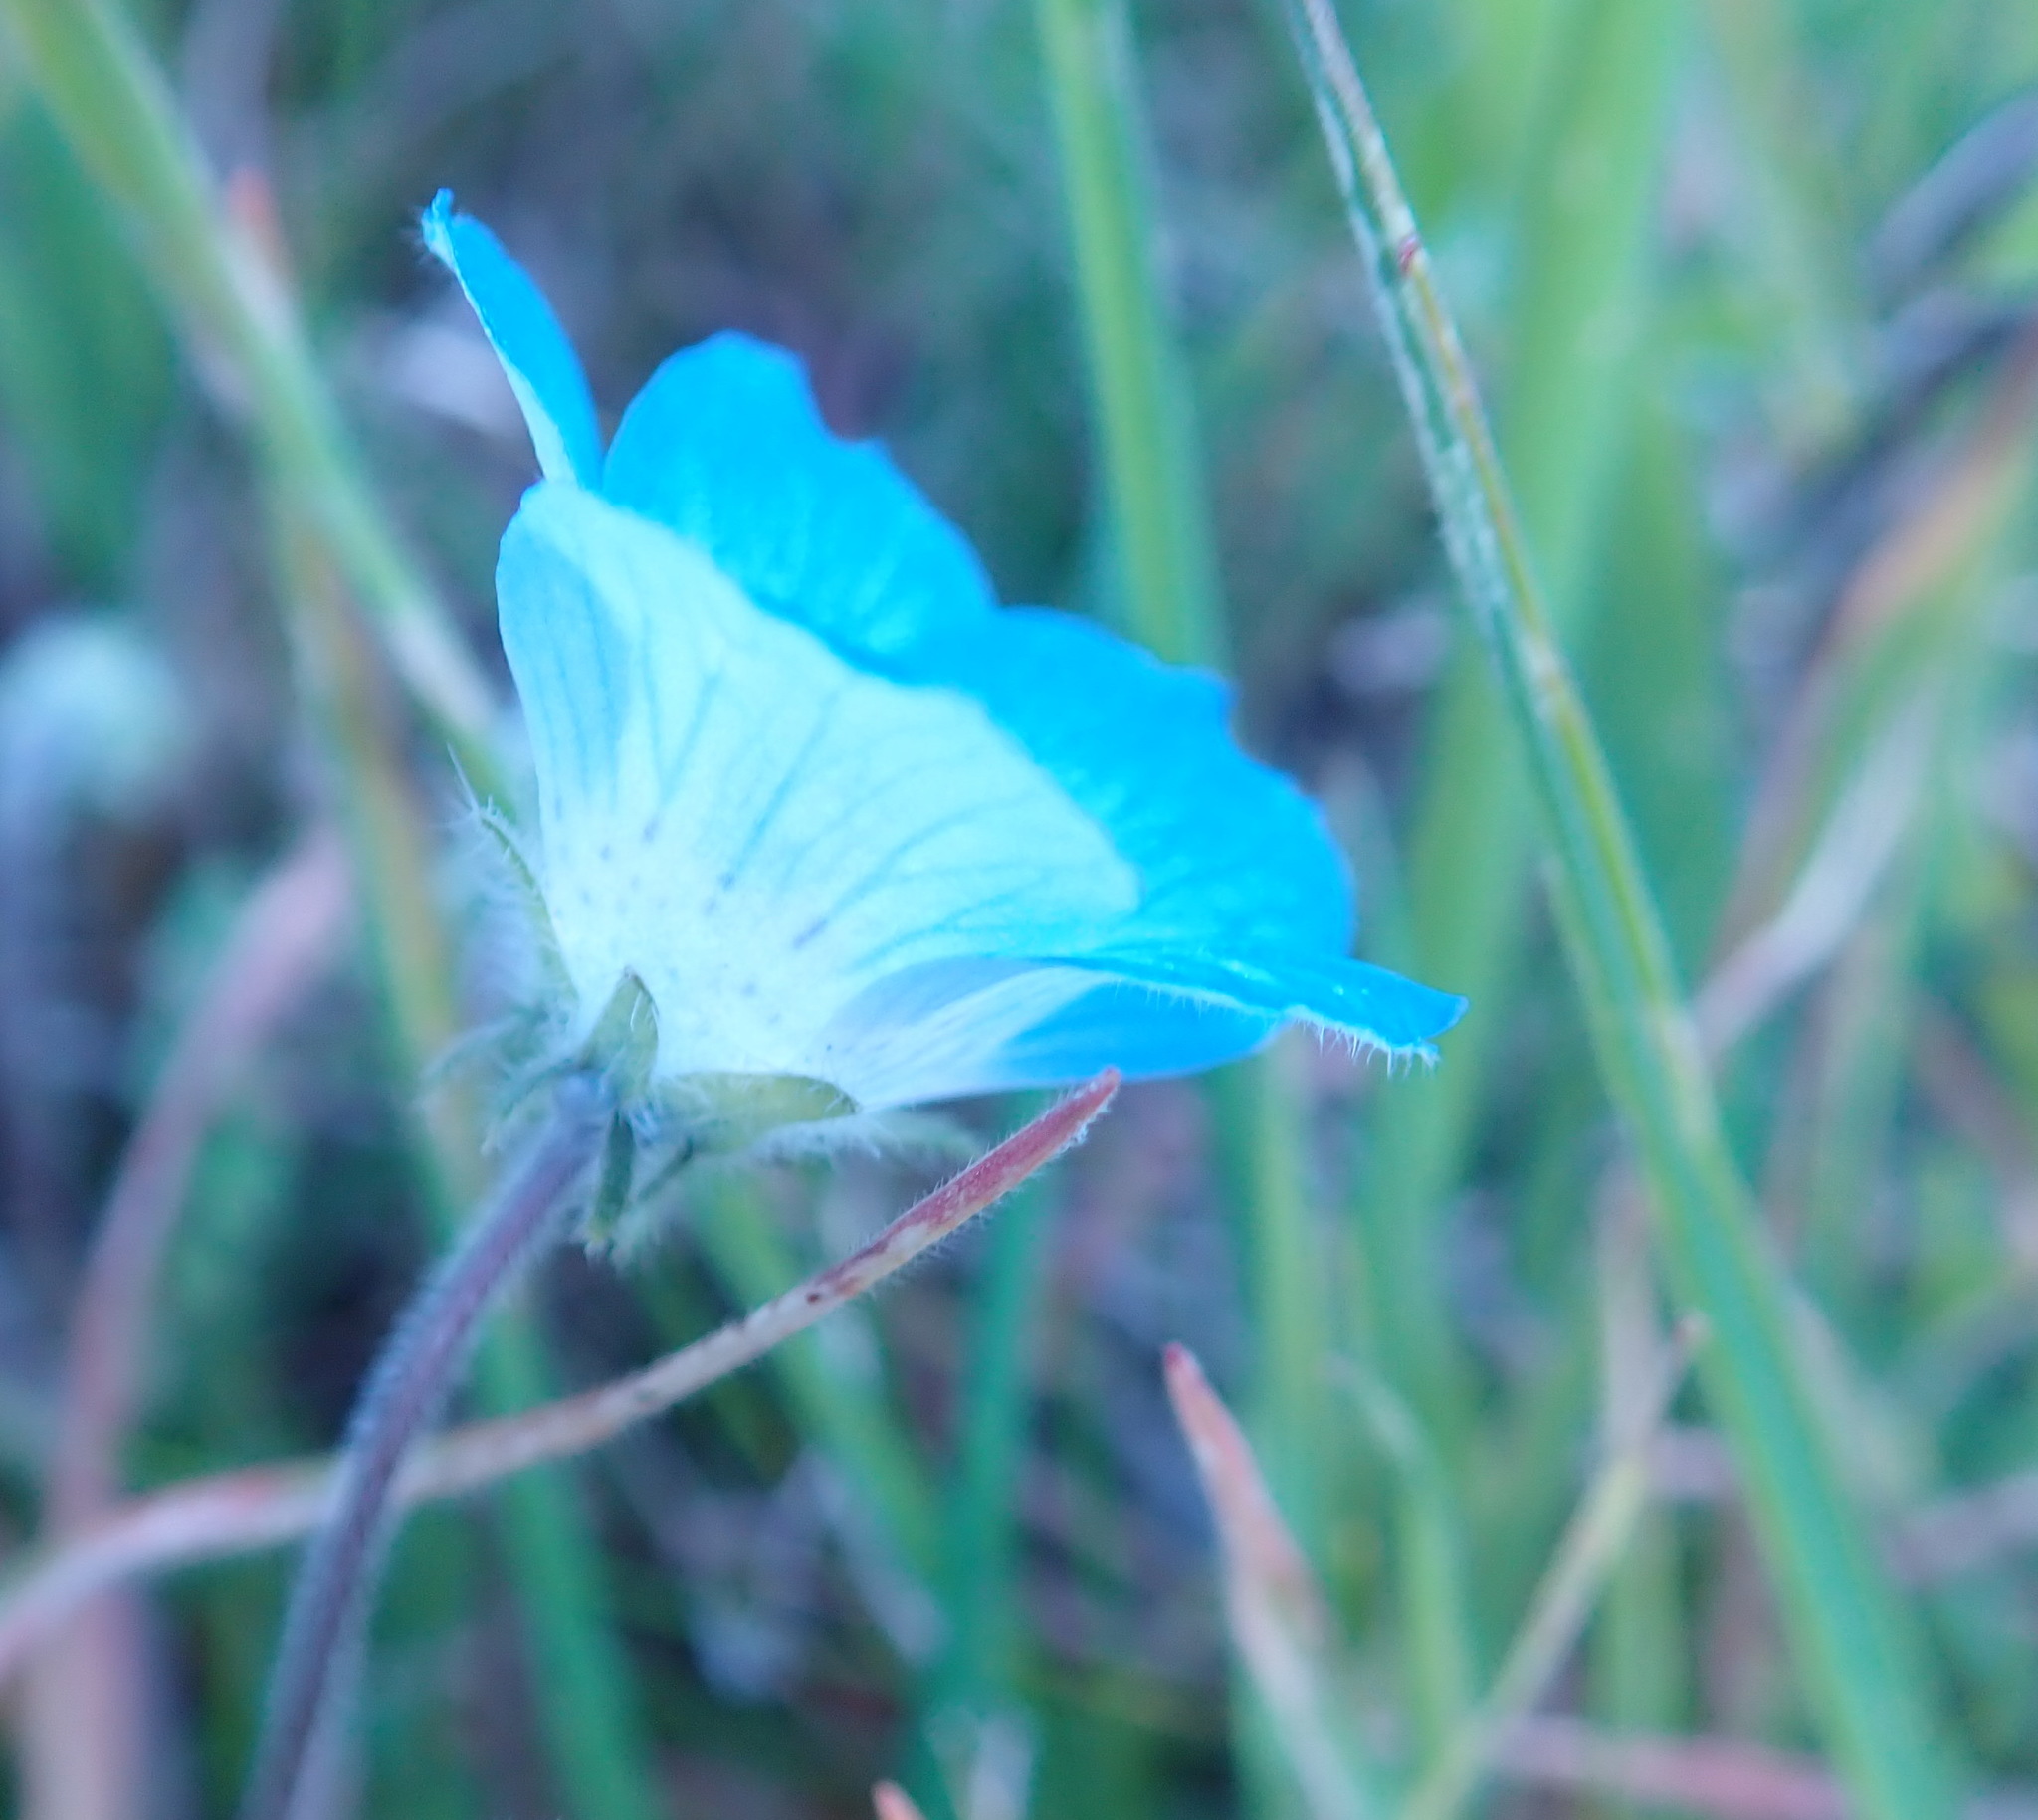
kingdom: Plantae
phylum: Tracheophyta
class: Magnoliopsida
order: Boraginales
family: Hydrophyllaceae
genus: Nemophila
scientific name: Nemophila menziesii
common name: Baby's-blue-eyes
